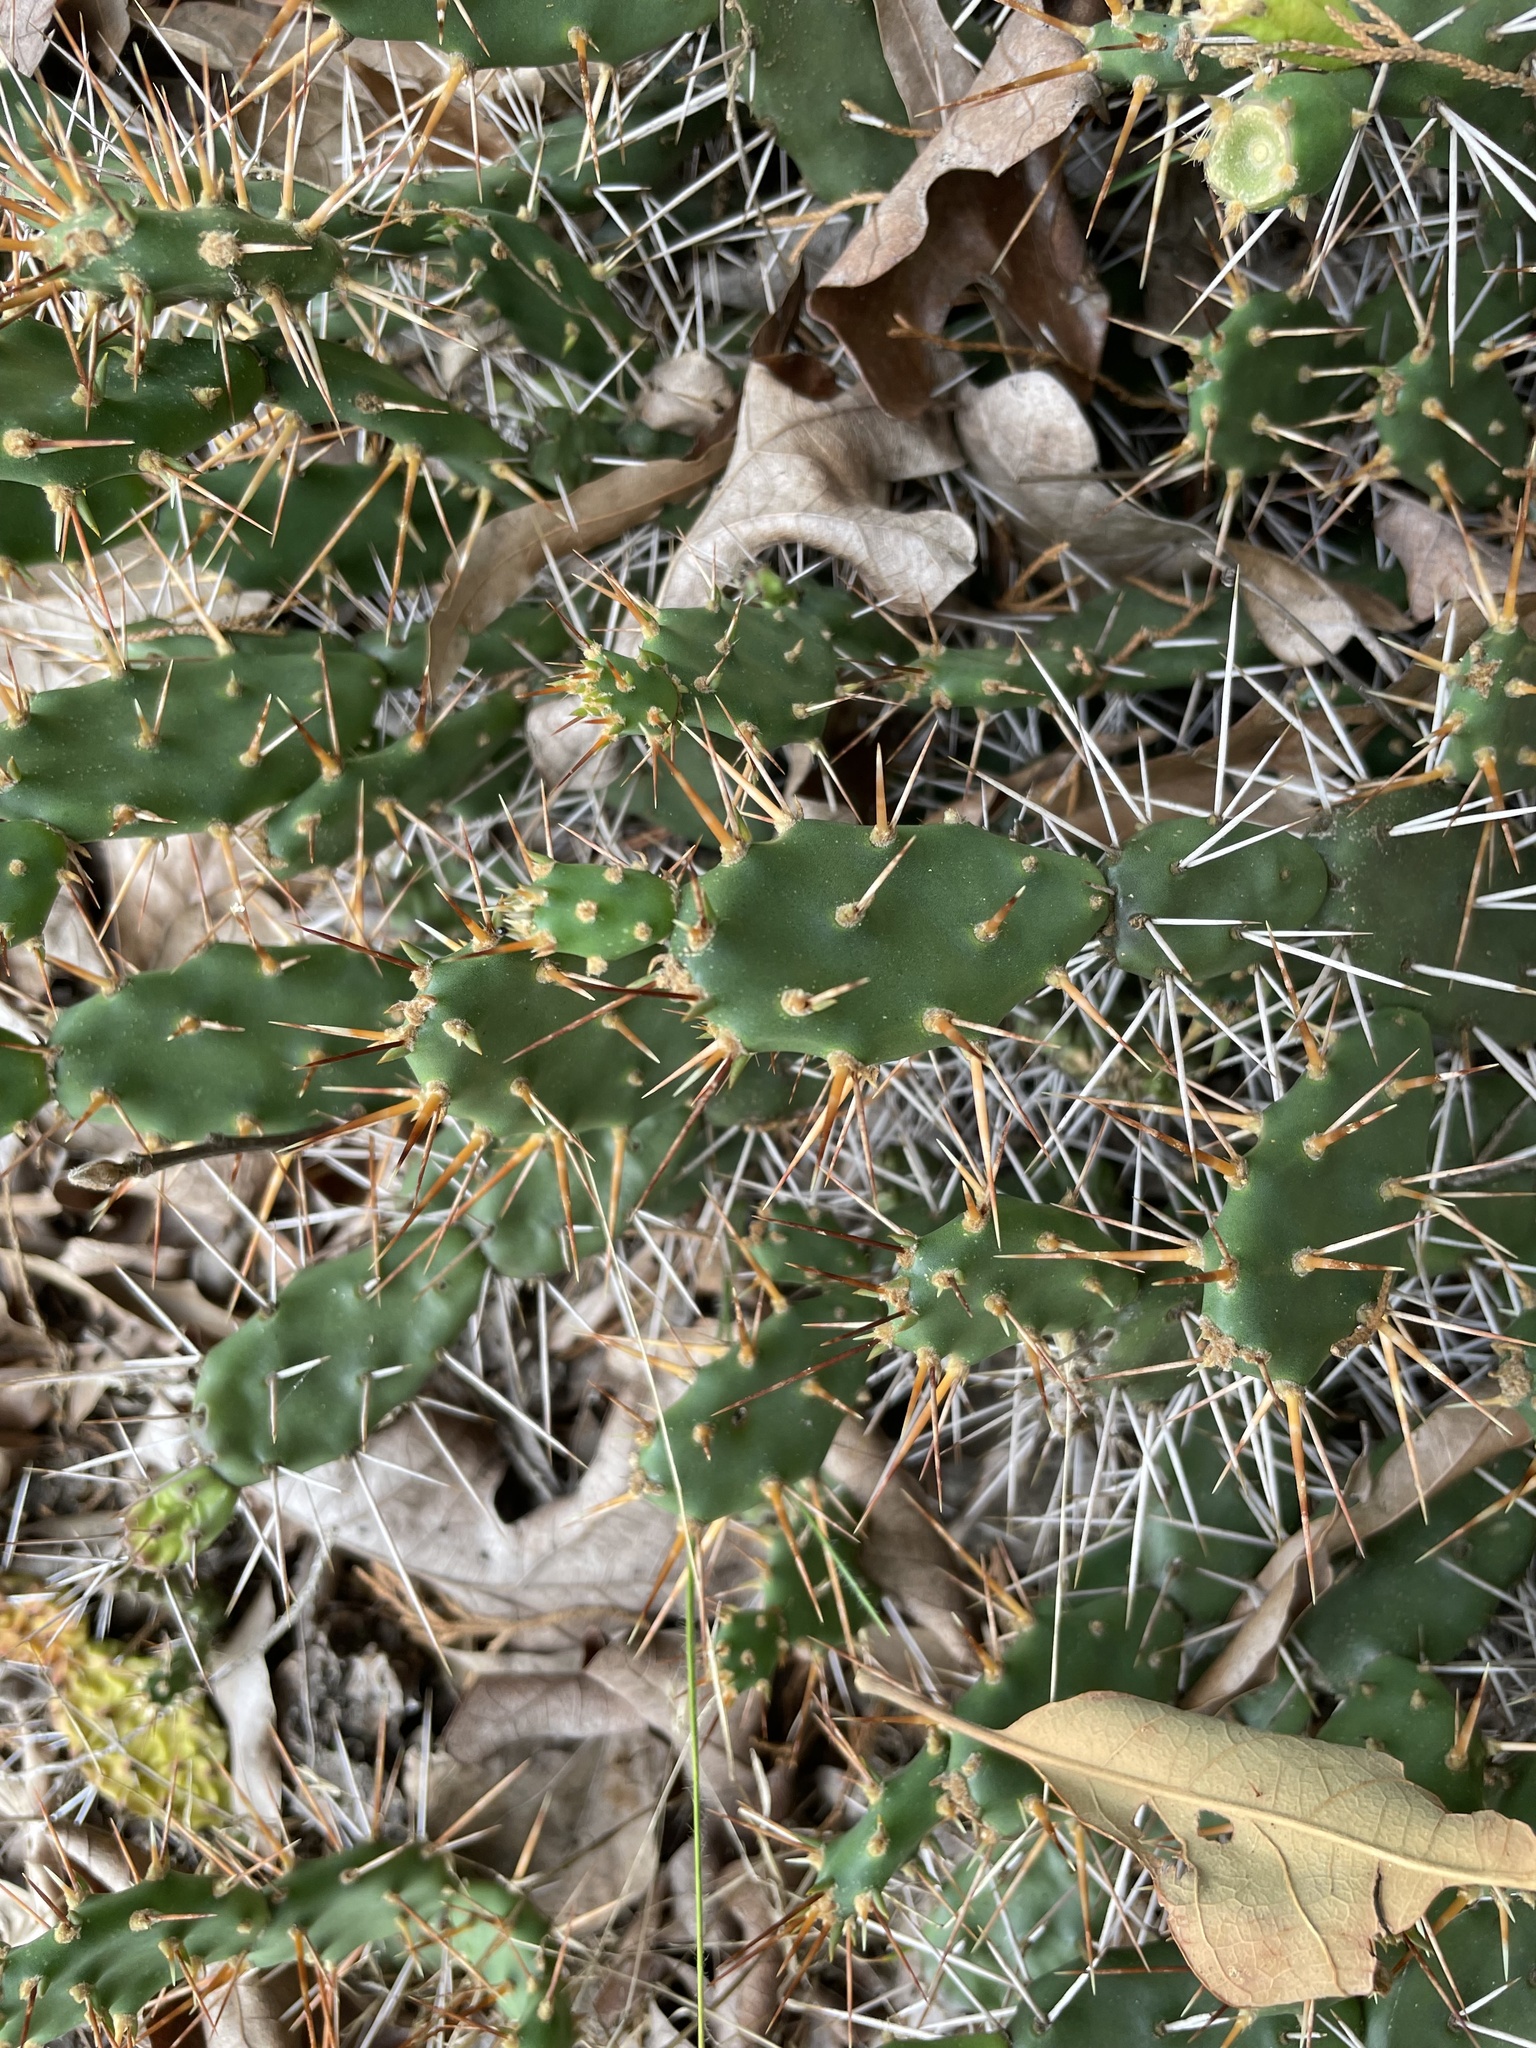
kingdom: Plantae
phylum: Tracheophyta
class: Magnoliopsida
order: Caryophyllales
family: Cactaceae
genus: Opuntia
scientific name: Opuntia drummondii
